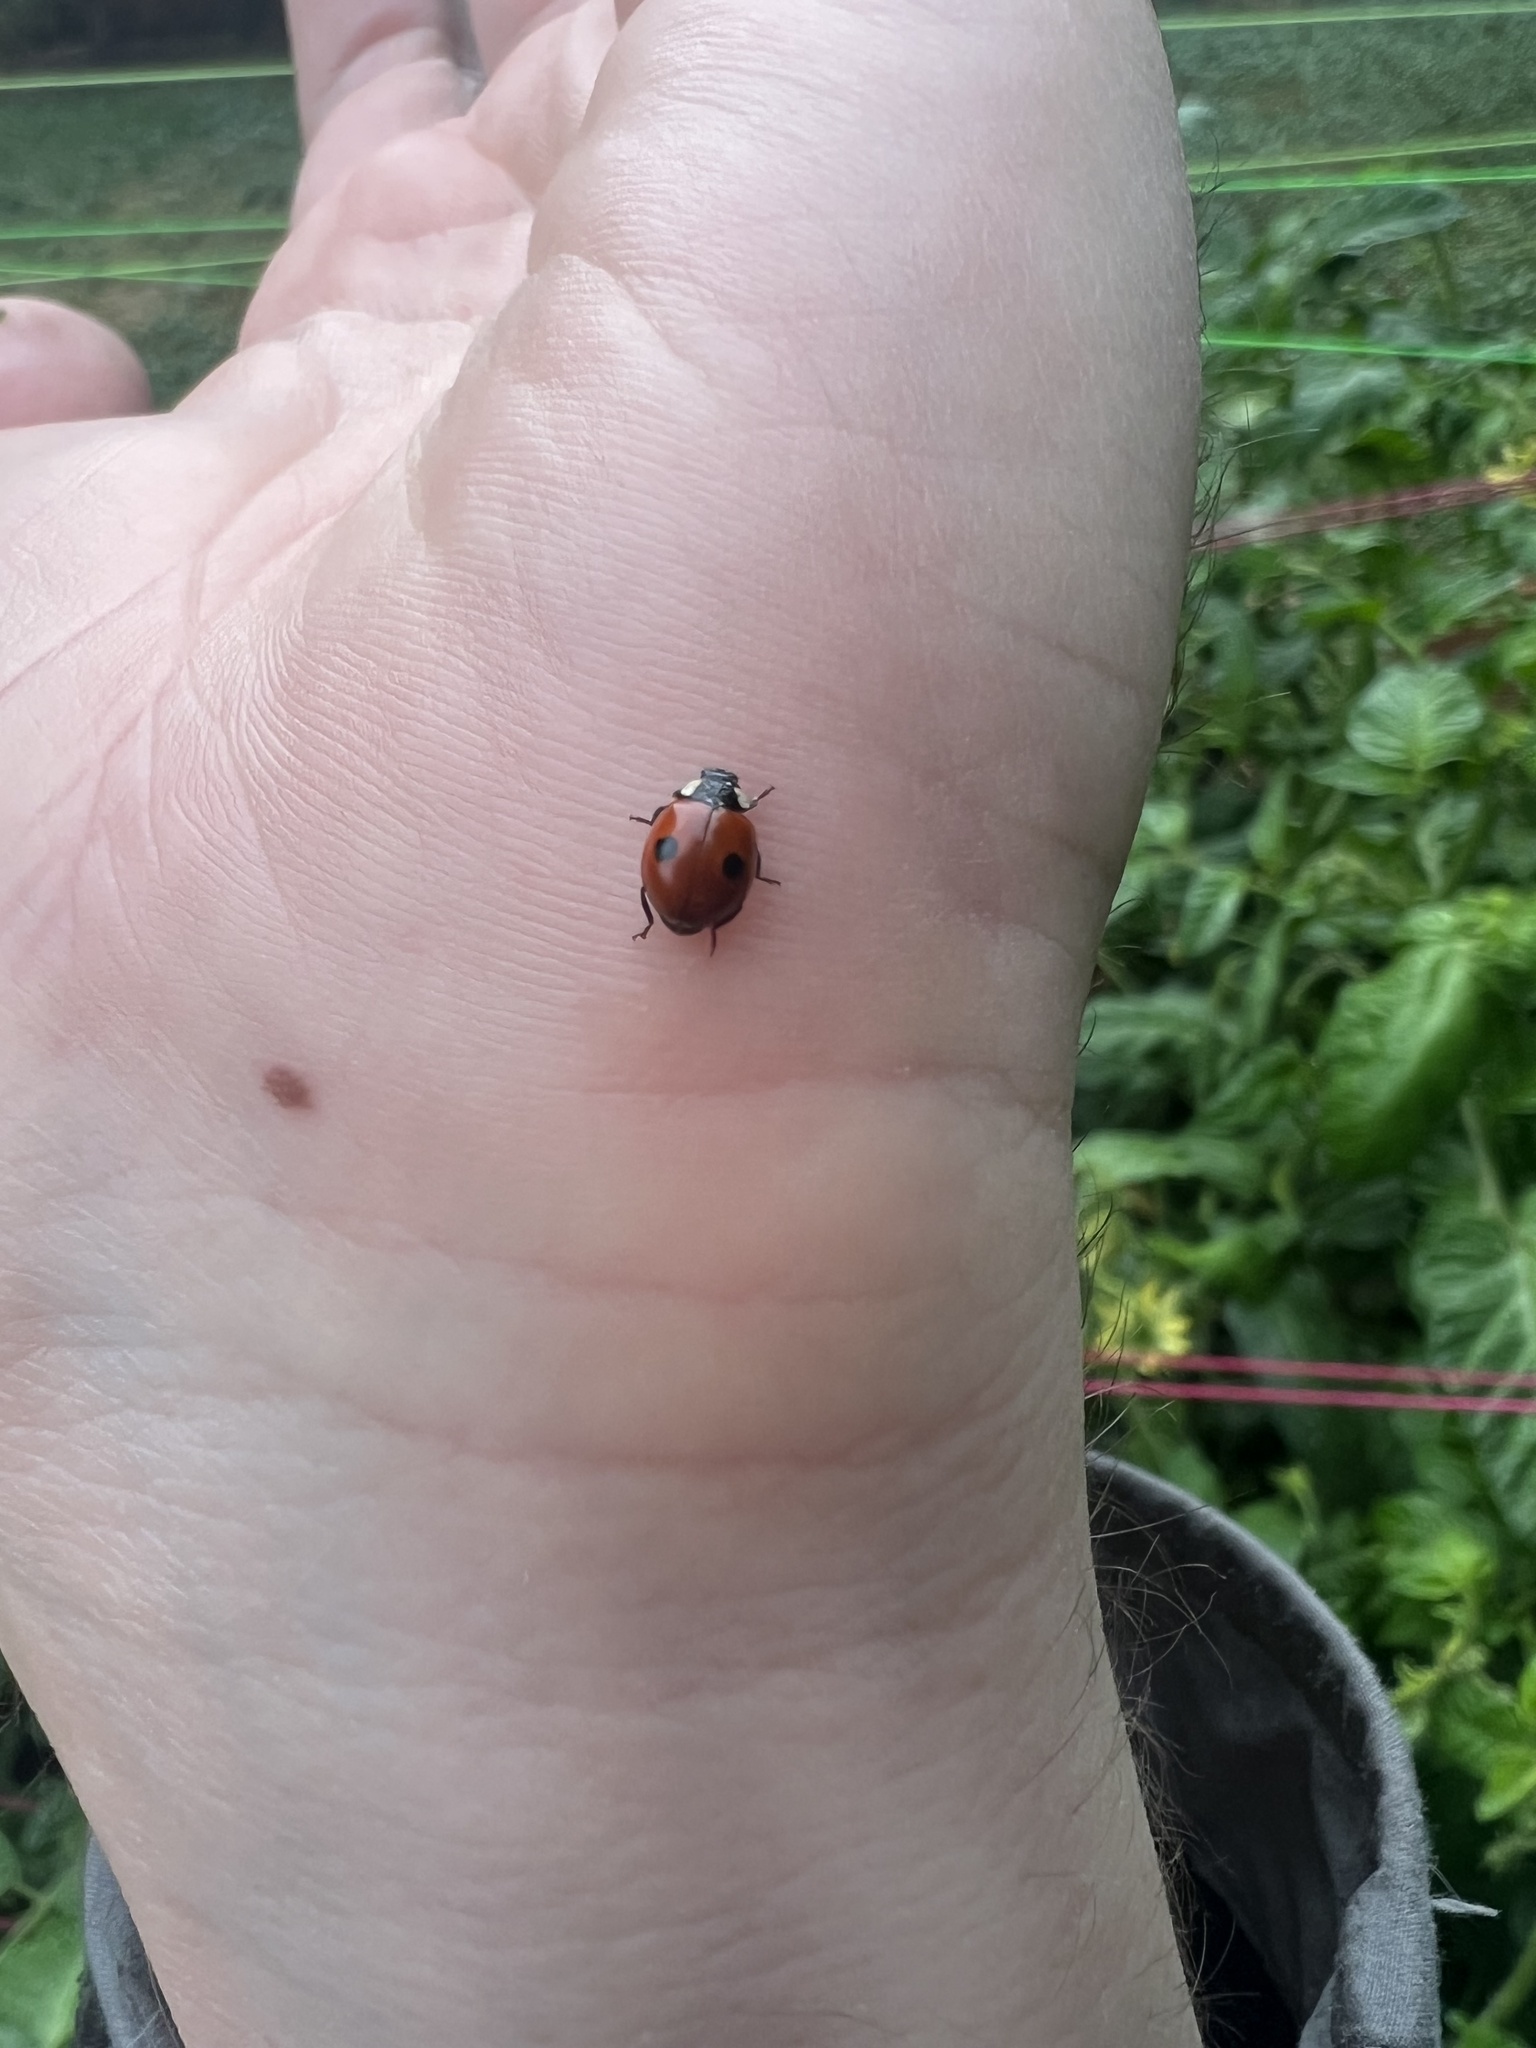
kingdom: Animalia
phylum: Arthropoda
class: Insecta
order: Coleoptera
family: Coccinellidae
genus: Adalia
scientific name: Adalia bipunctata
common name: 2-spot ladybird
